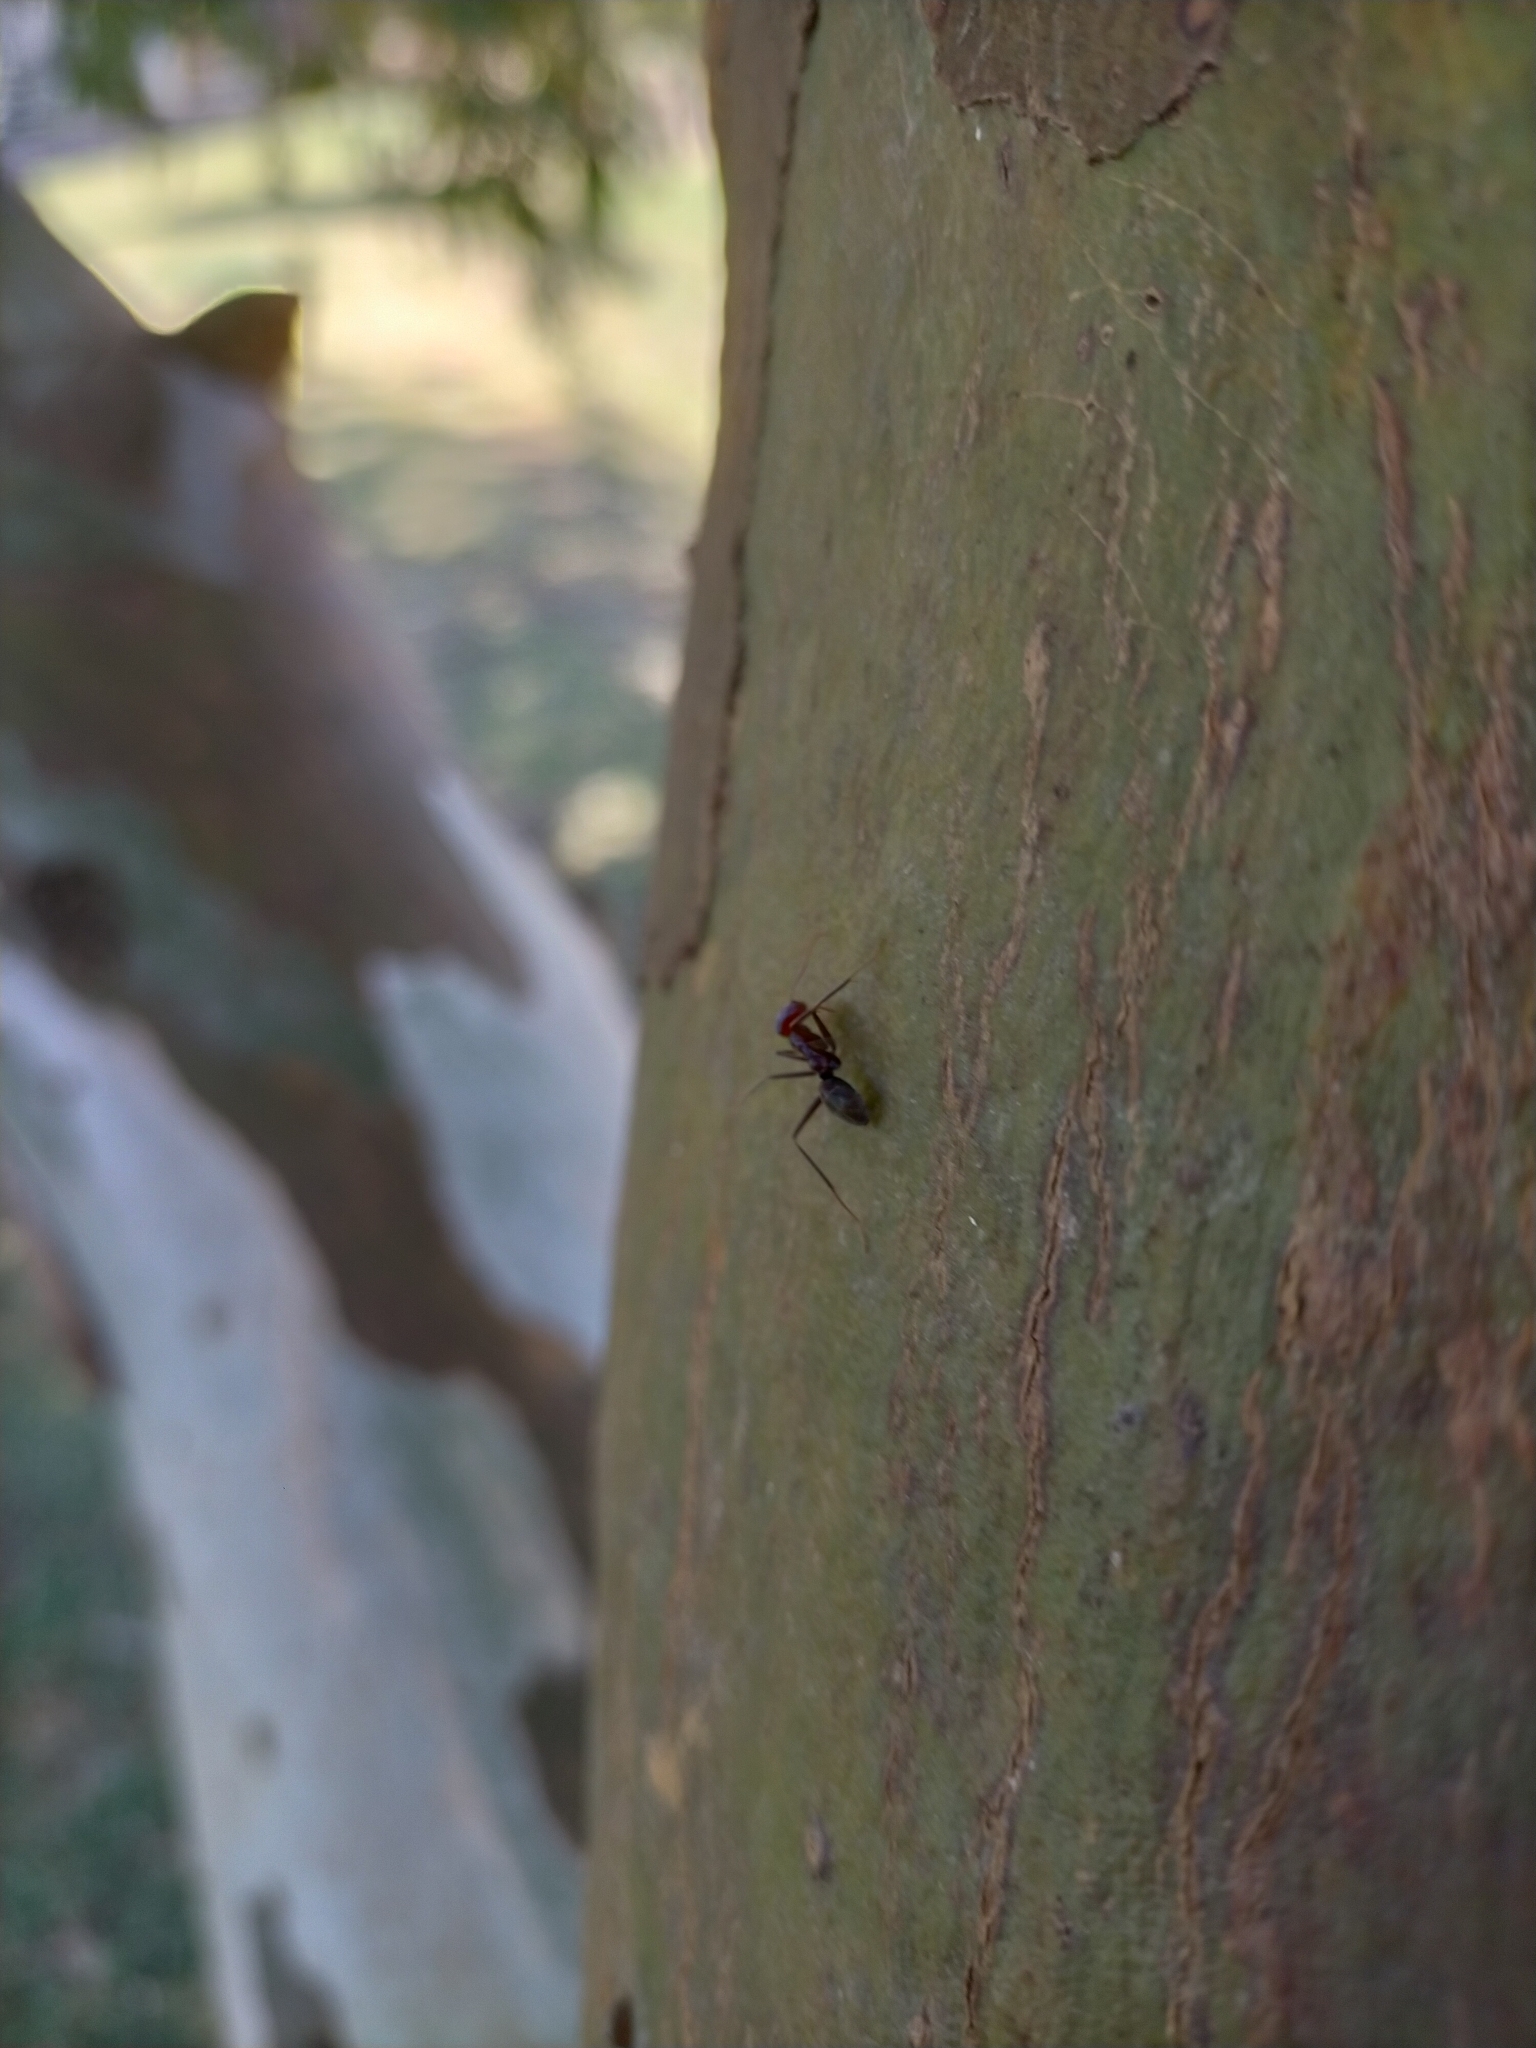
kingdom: Animalia
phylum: Arthropoda
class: Insecta
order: Hymenoptera
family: Formicidae
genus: Iridomyrmex
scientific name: Iridomyrmex purpureus
